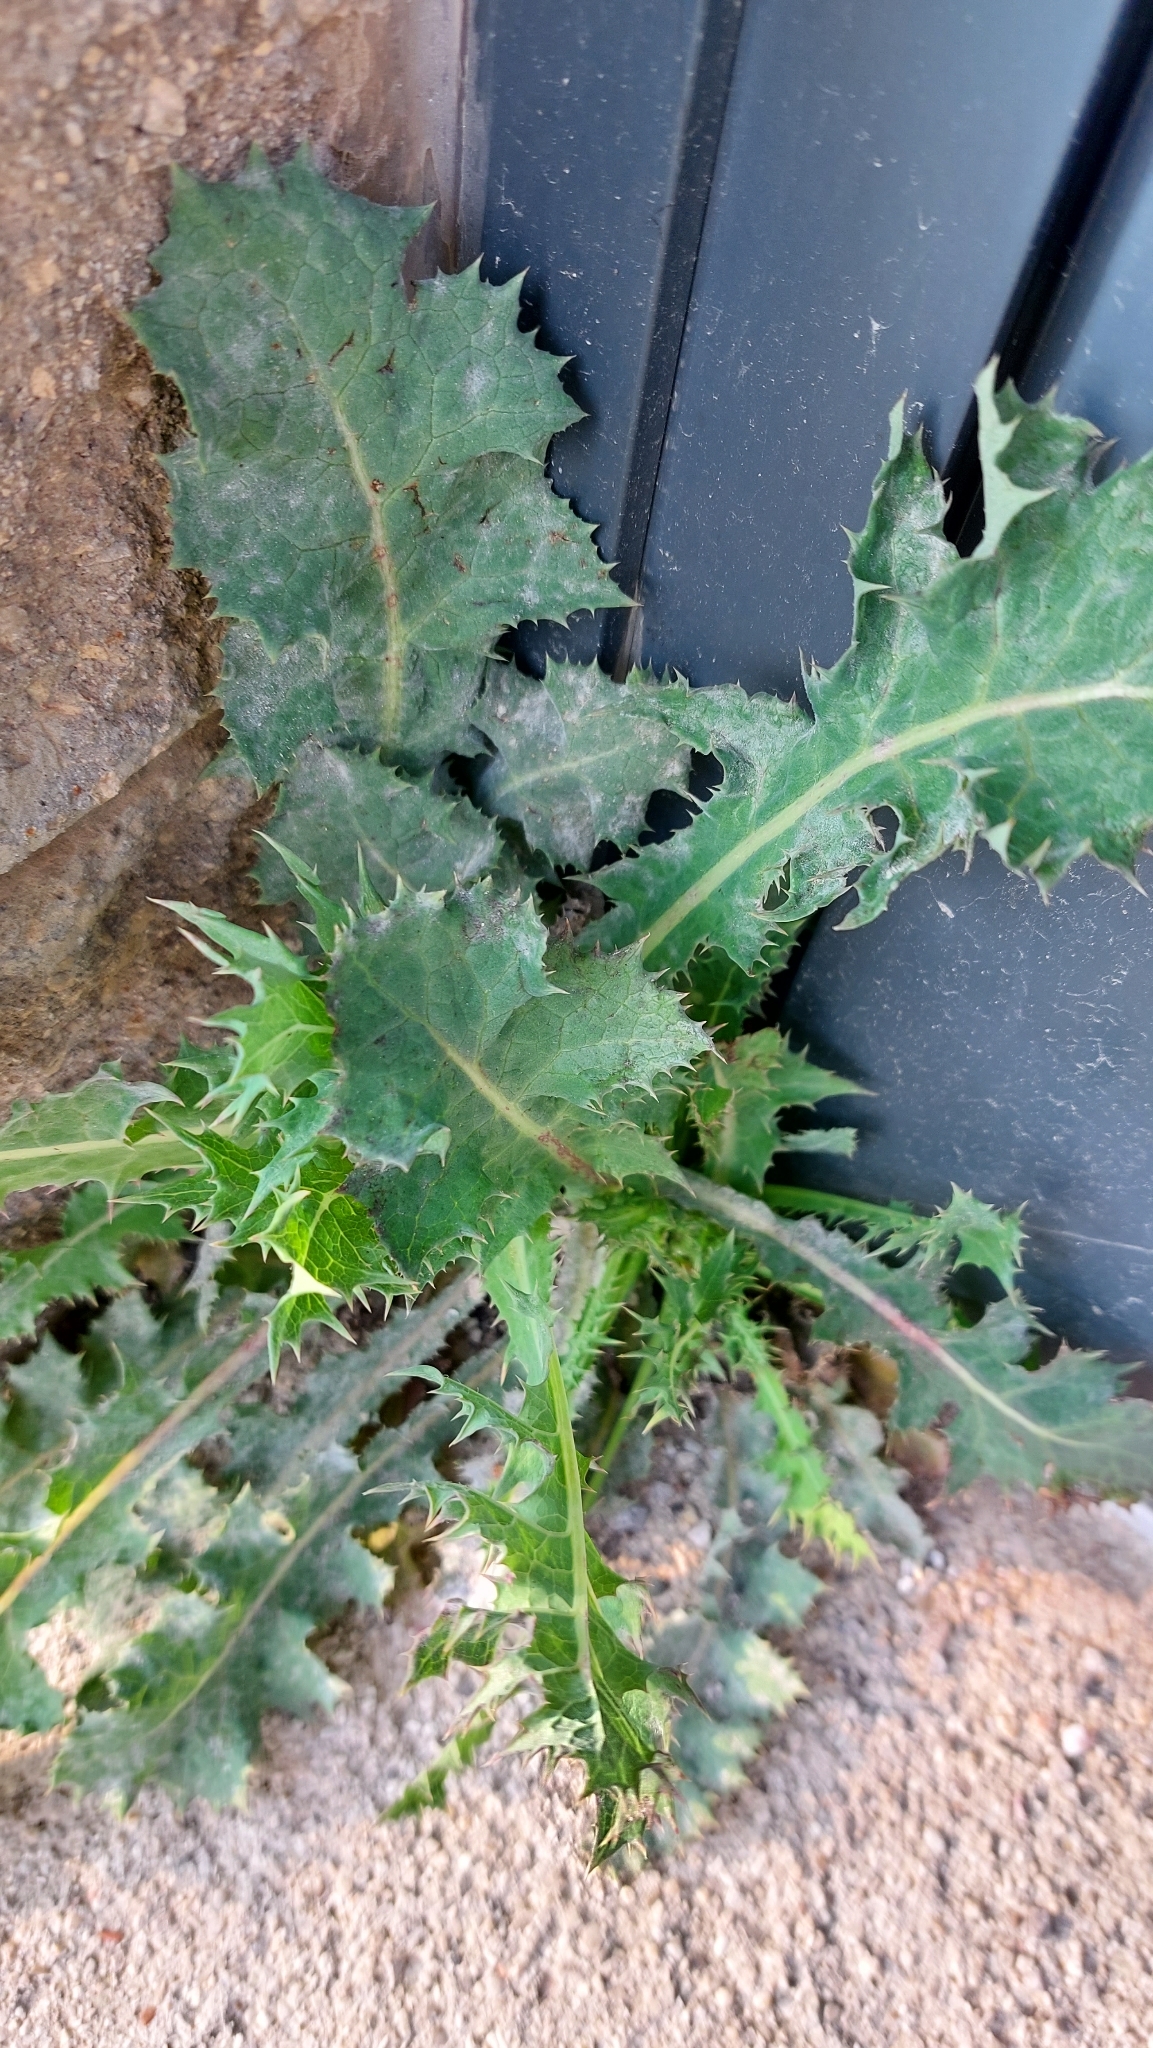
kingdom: Plantae
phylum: Tracheophyta
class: Magnoliopsida
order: Asterales
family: Asteraceae
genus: Sonchus
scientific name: Sonchus asper
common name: Prickly sow-thistle
